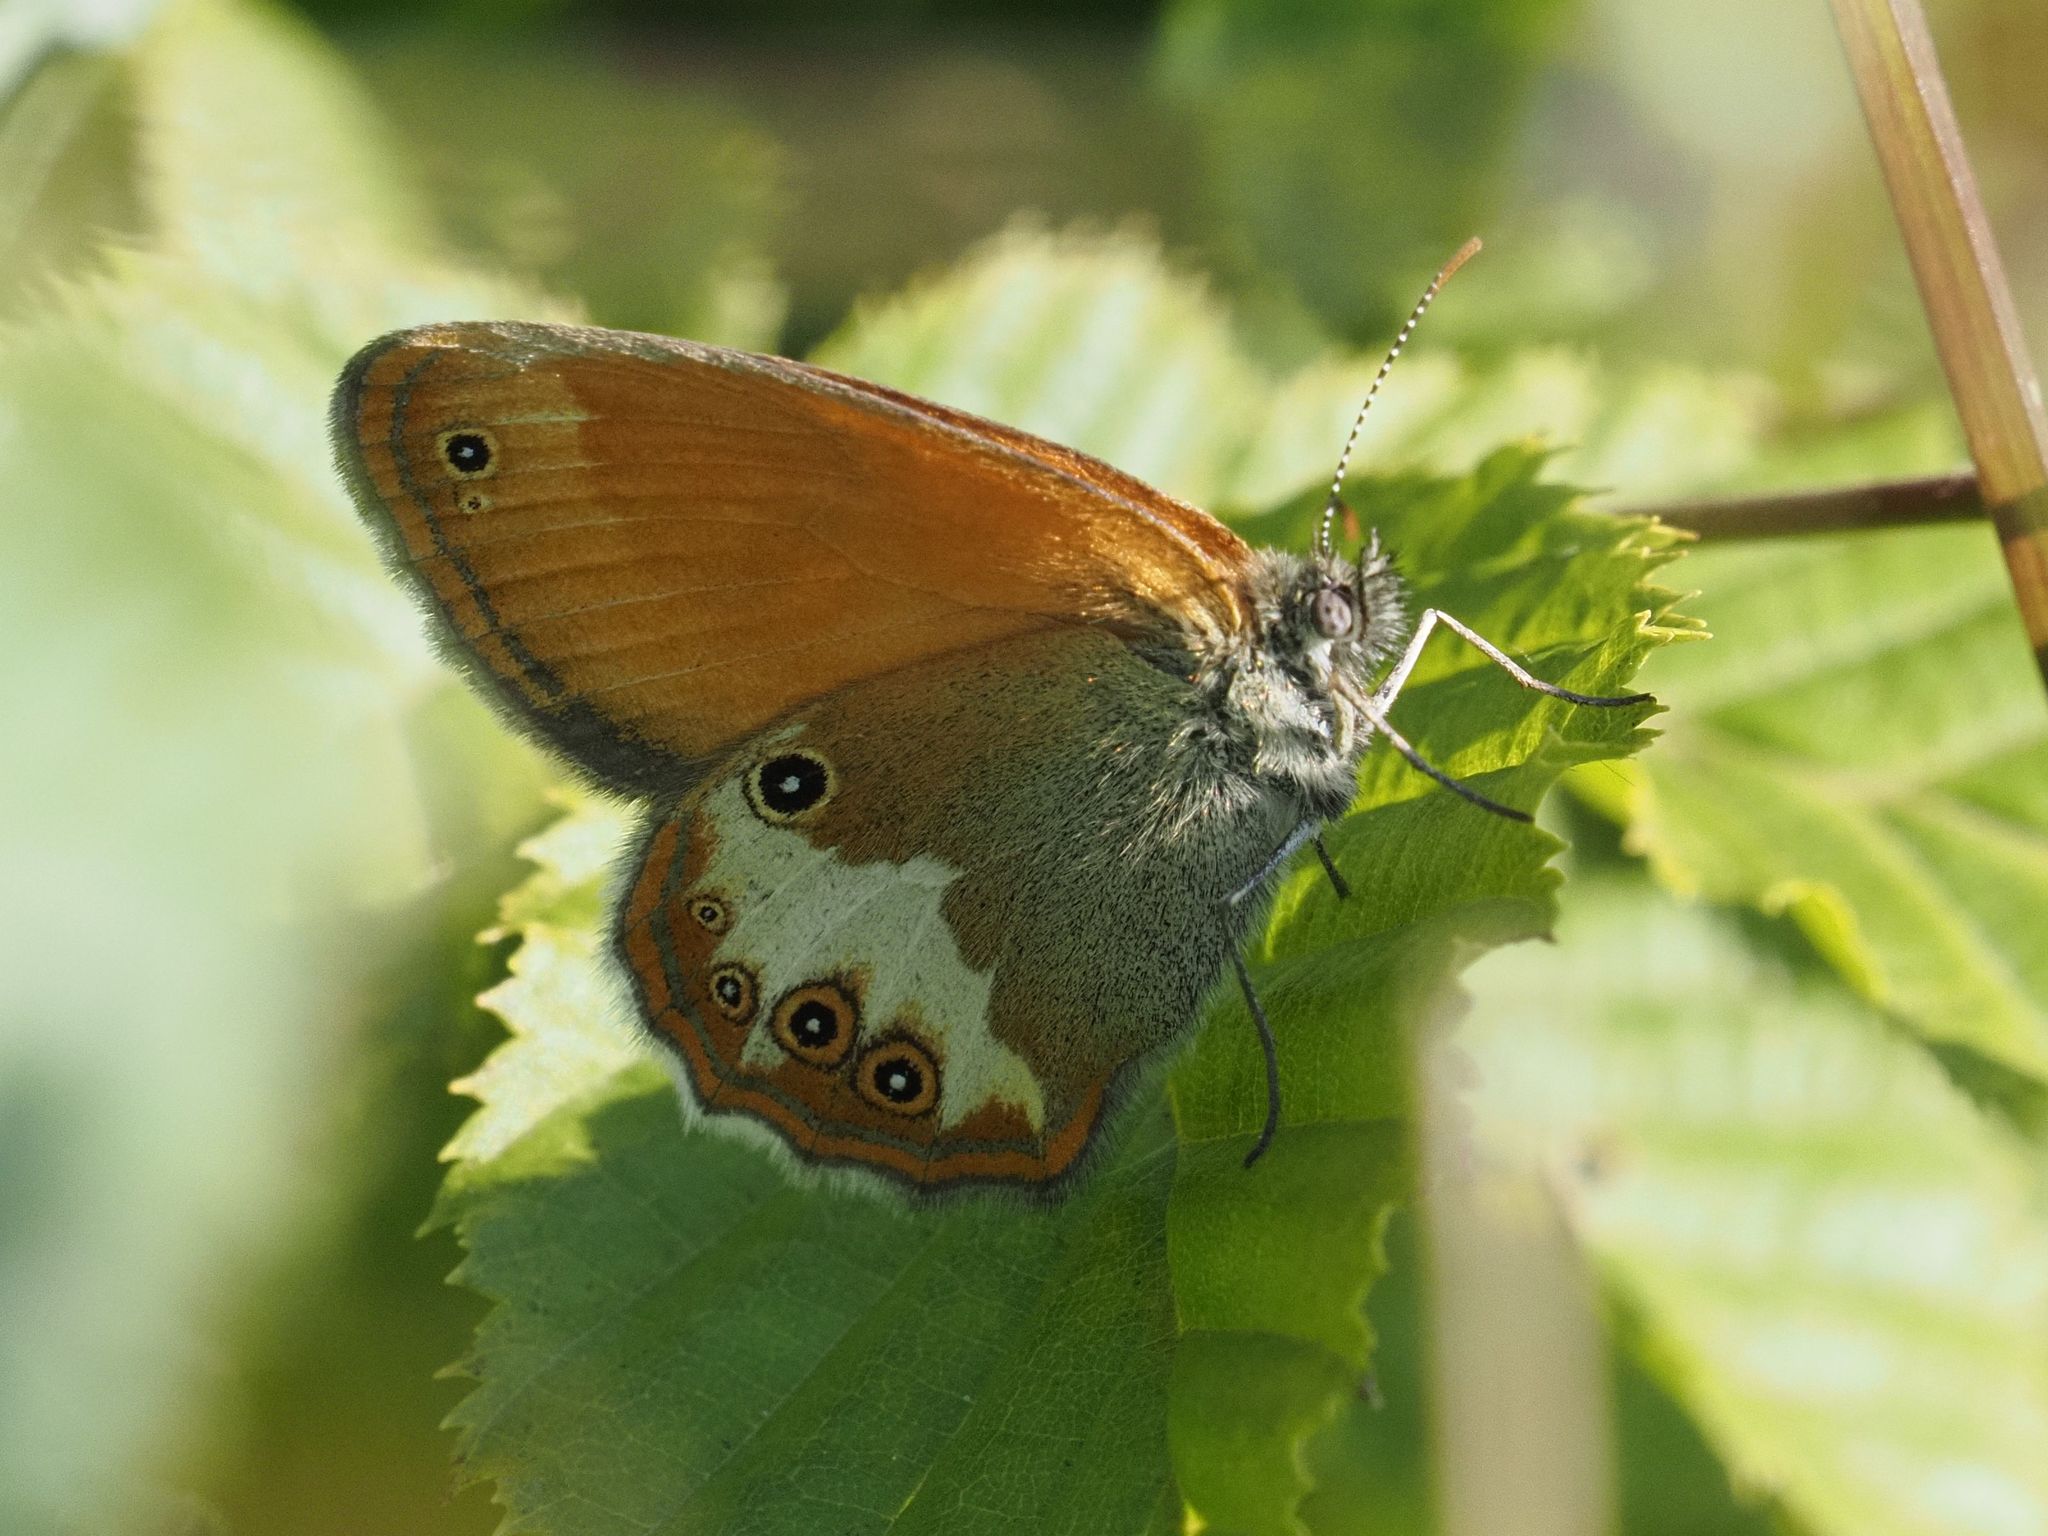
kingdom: Animalia
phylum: Arthropoda
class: Insecta
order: Lepidoptera
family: Nymphalidae
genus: Coenonympha
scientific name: Coenonympha arcania
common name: Pearly heath
